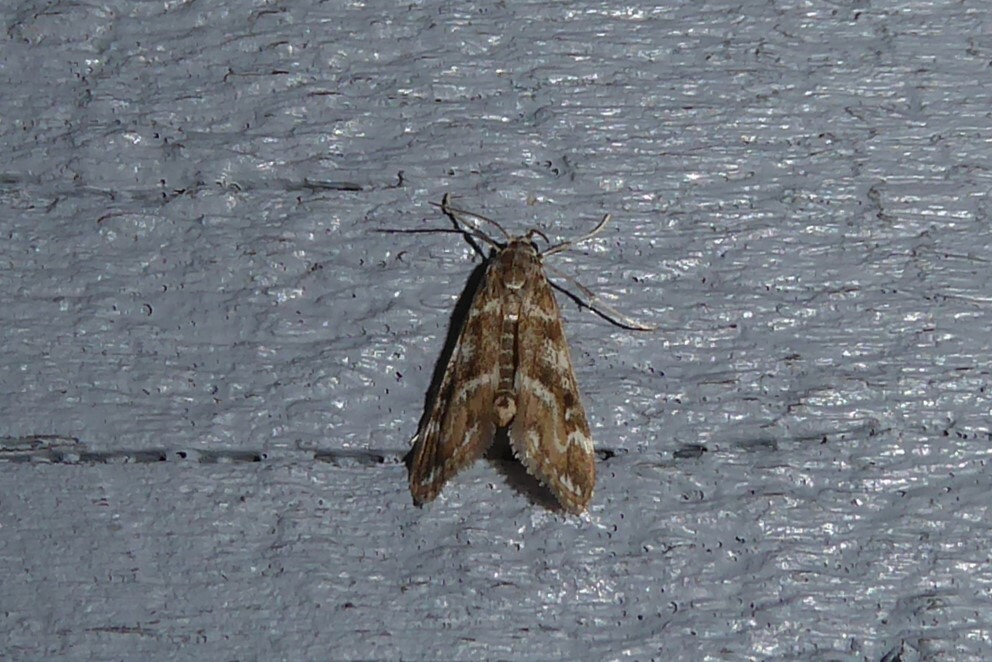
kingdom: Animalia
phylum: Arthropoda
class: Insecta
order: Lepidoptera
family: Crambidae
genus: Hygraula
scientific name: Hygraula nitens
